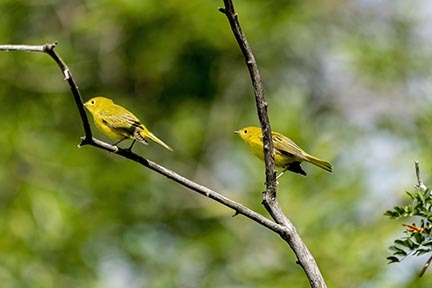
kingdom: Animalia
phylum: Chordata
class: Aves
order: Passeriformes
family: Parulidae
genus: Setophaga
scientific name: Setophaga petechia
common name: Yellow warbler
